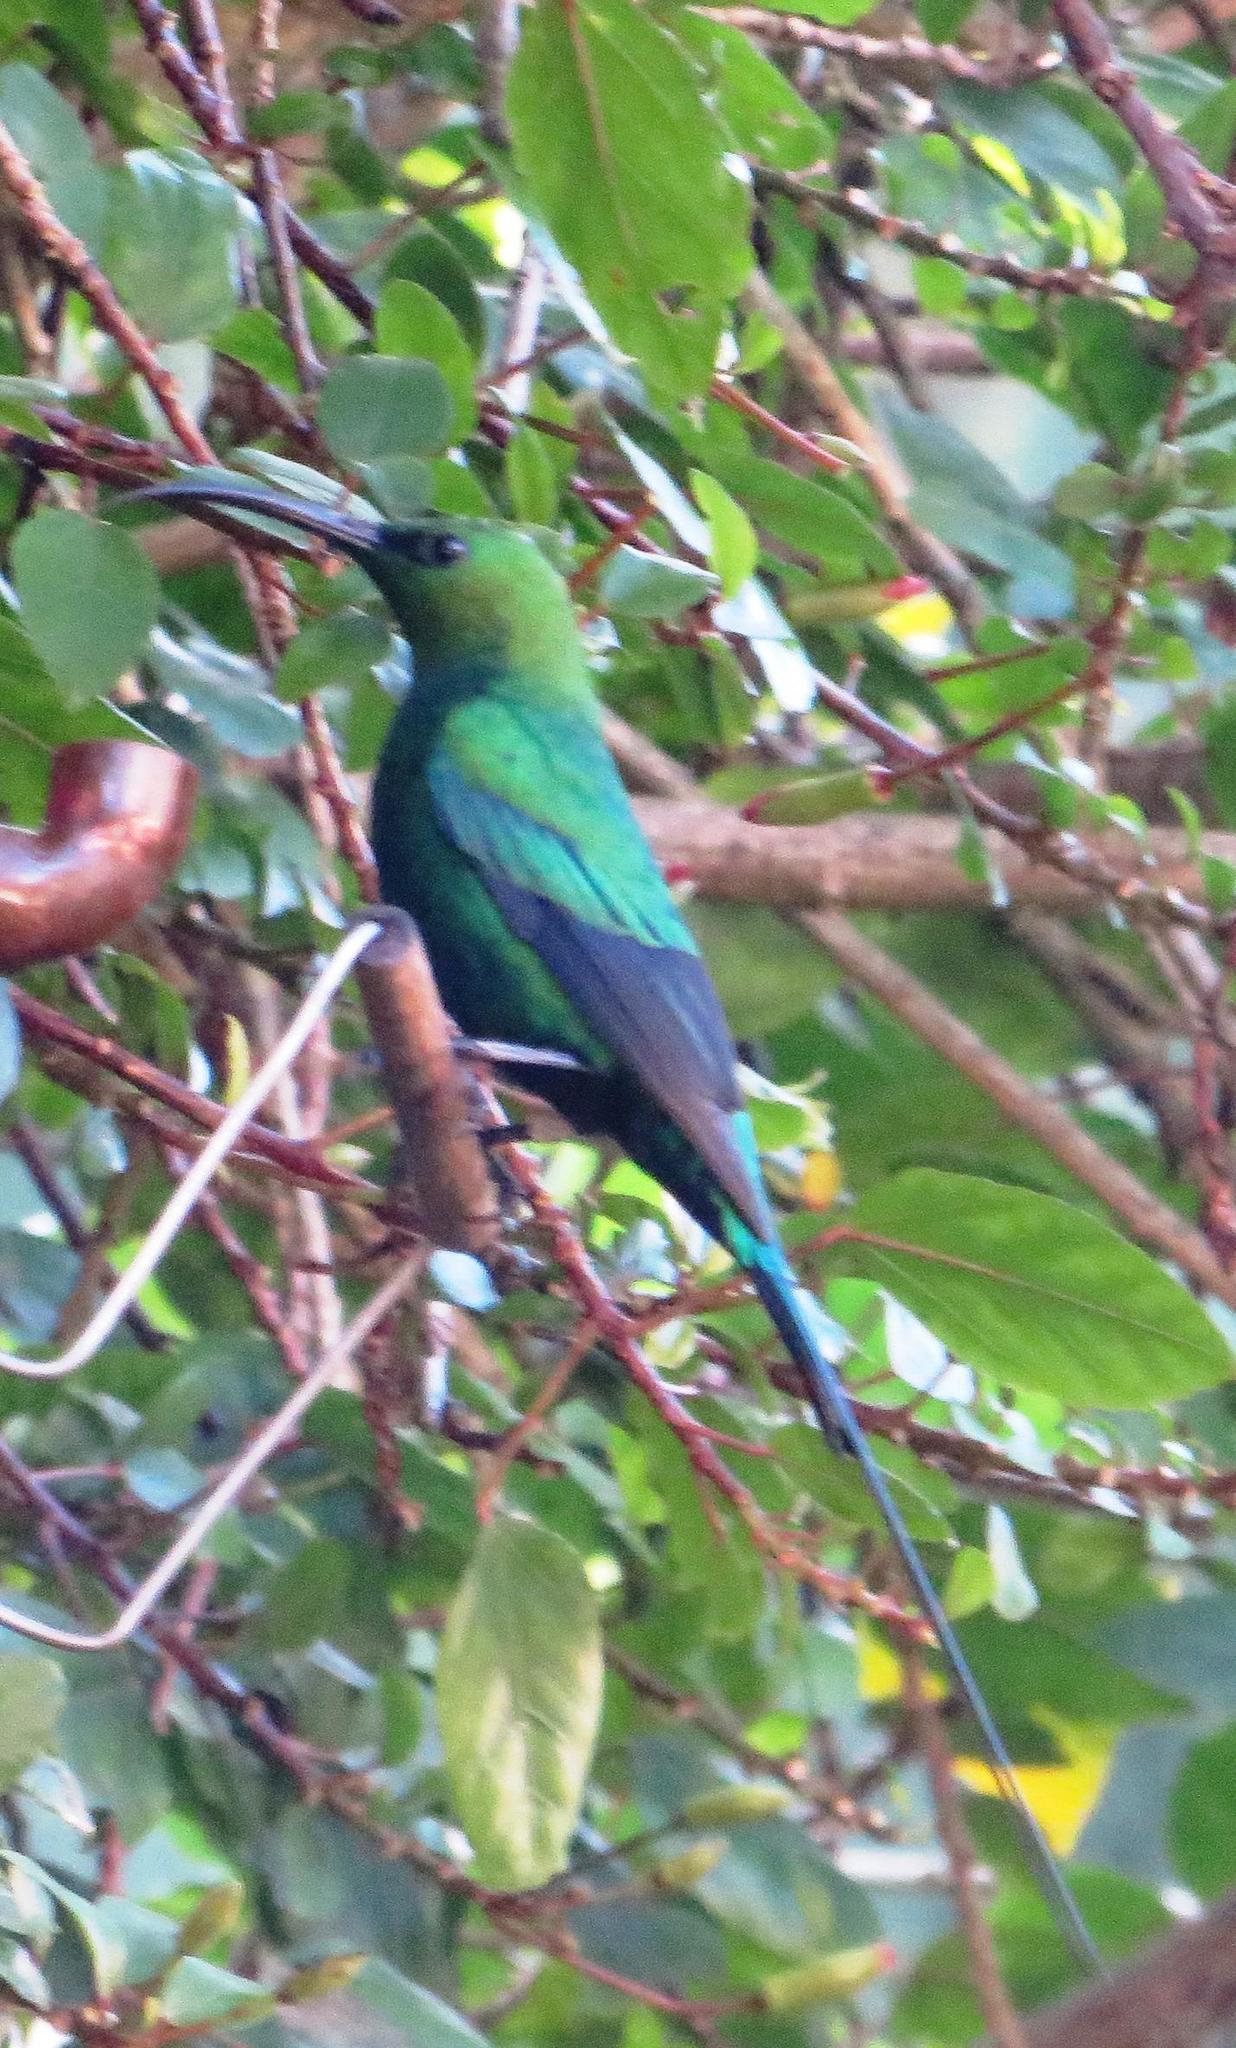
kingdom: Animalia
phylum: Chordata
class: Aves
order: Passeriformes
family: Nectariniidae
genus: Nectarinia
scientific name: Nectarinia famosa
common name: Malachite sunbird
